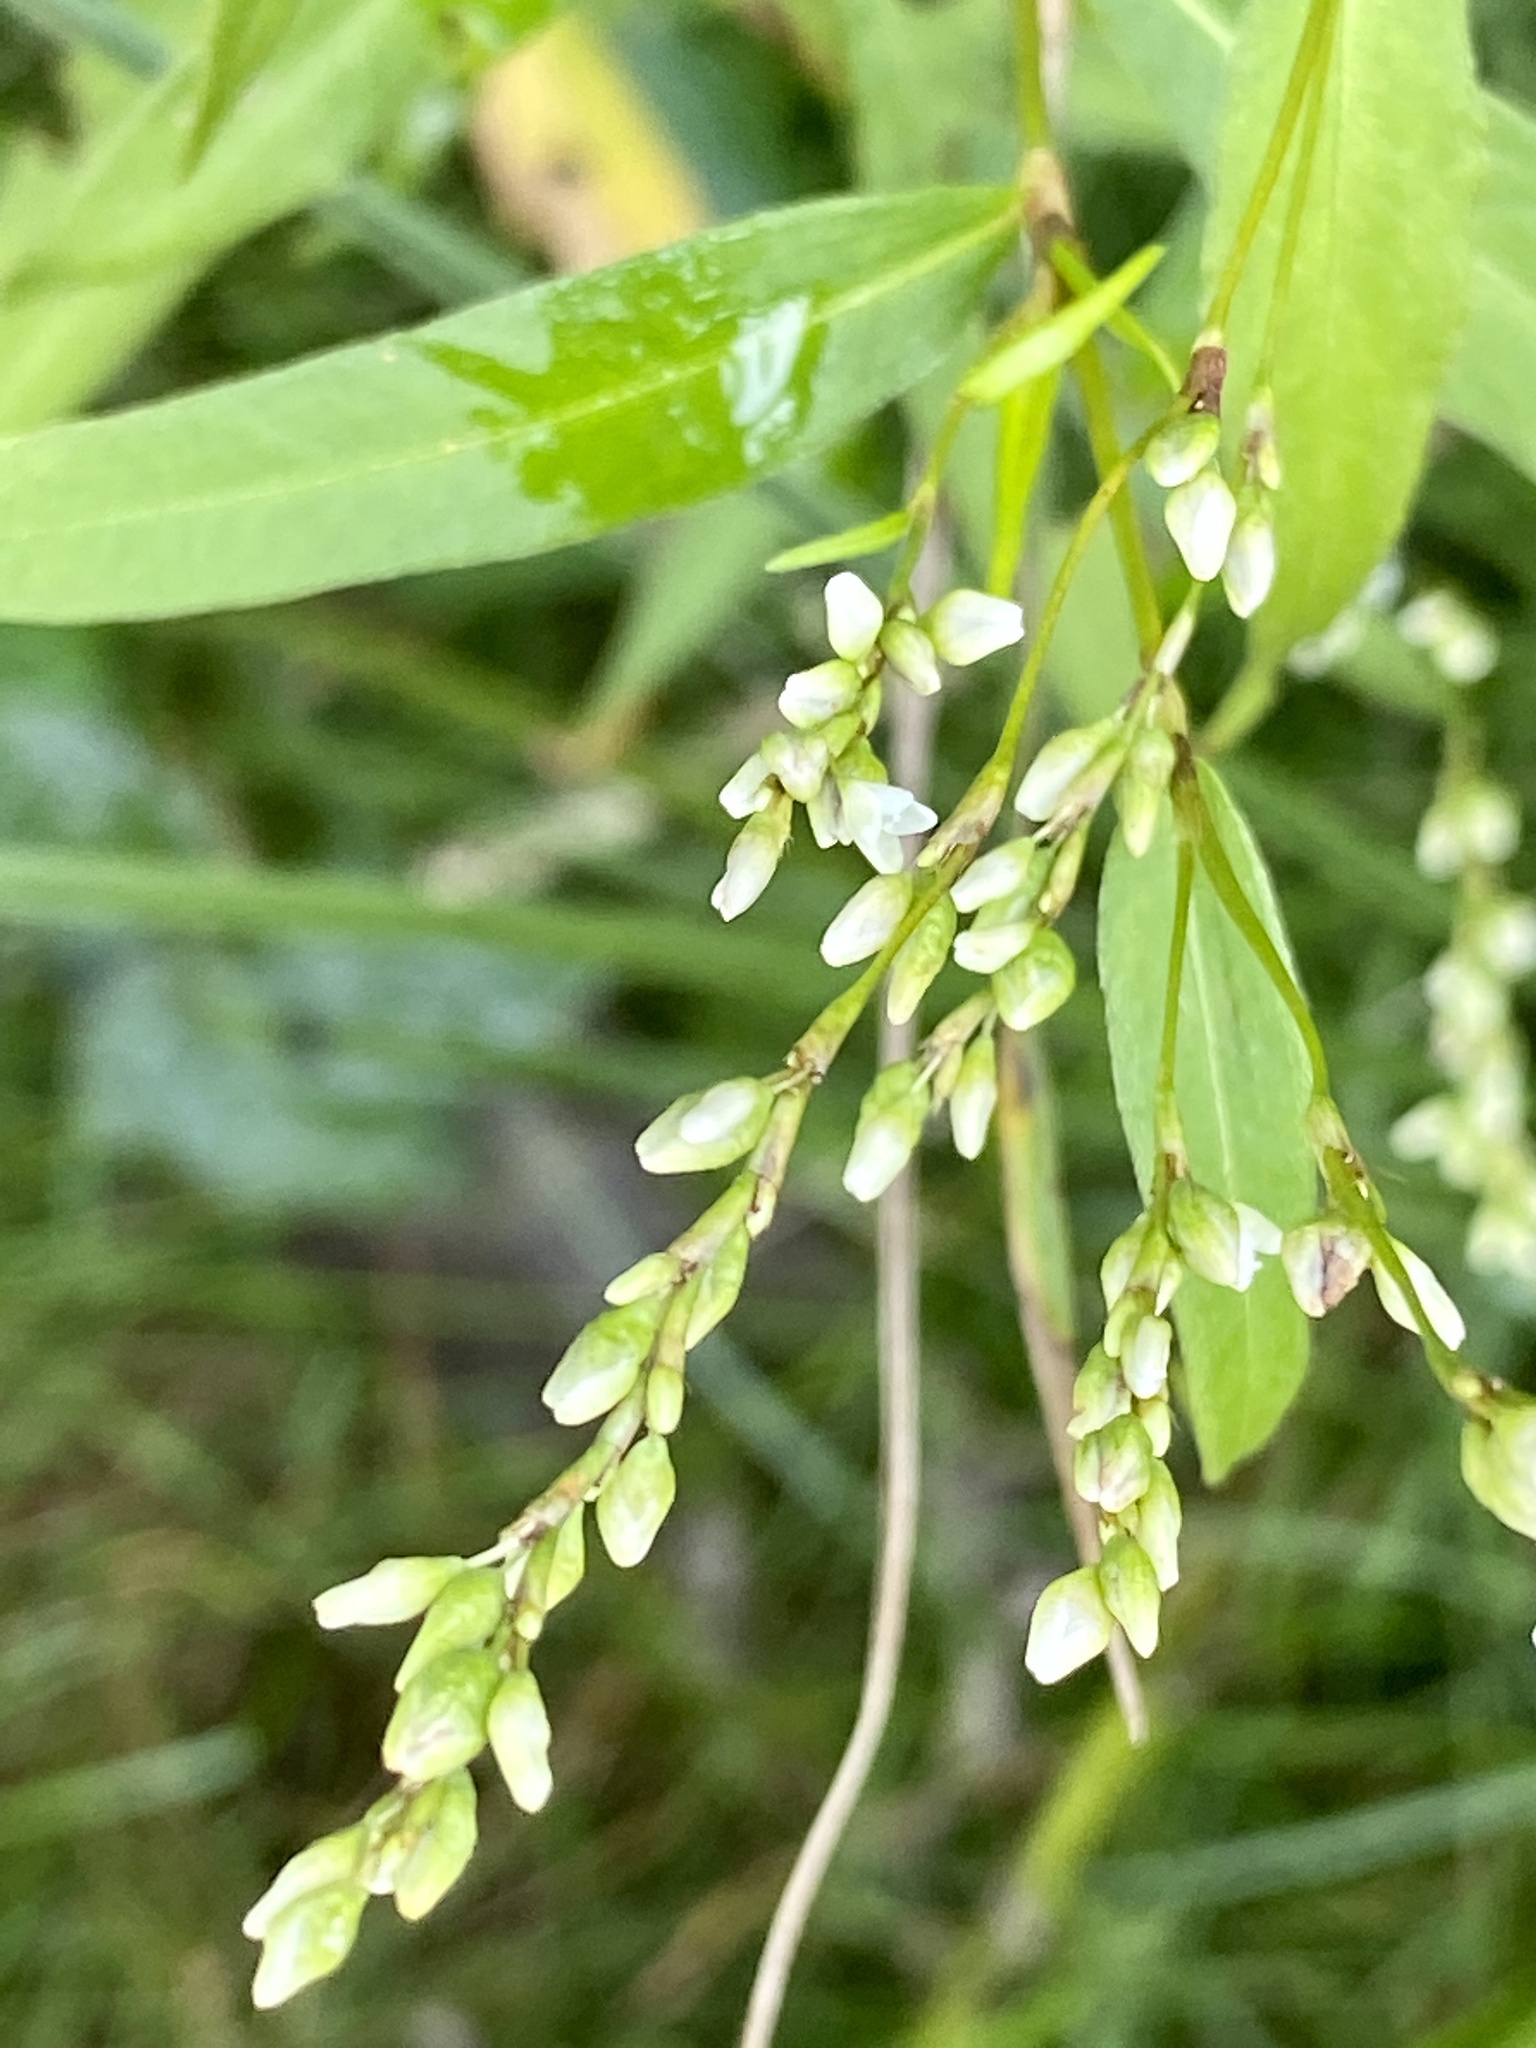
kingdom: Plantae
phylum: Tracheophyta
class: Magnoliopsida
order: Caryophyllales
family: Polygonaceae
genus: Persicaria
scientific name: Persicaria punctata
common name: Dotted smartweed
